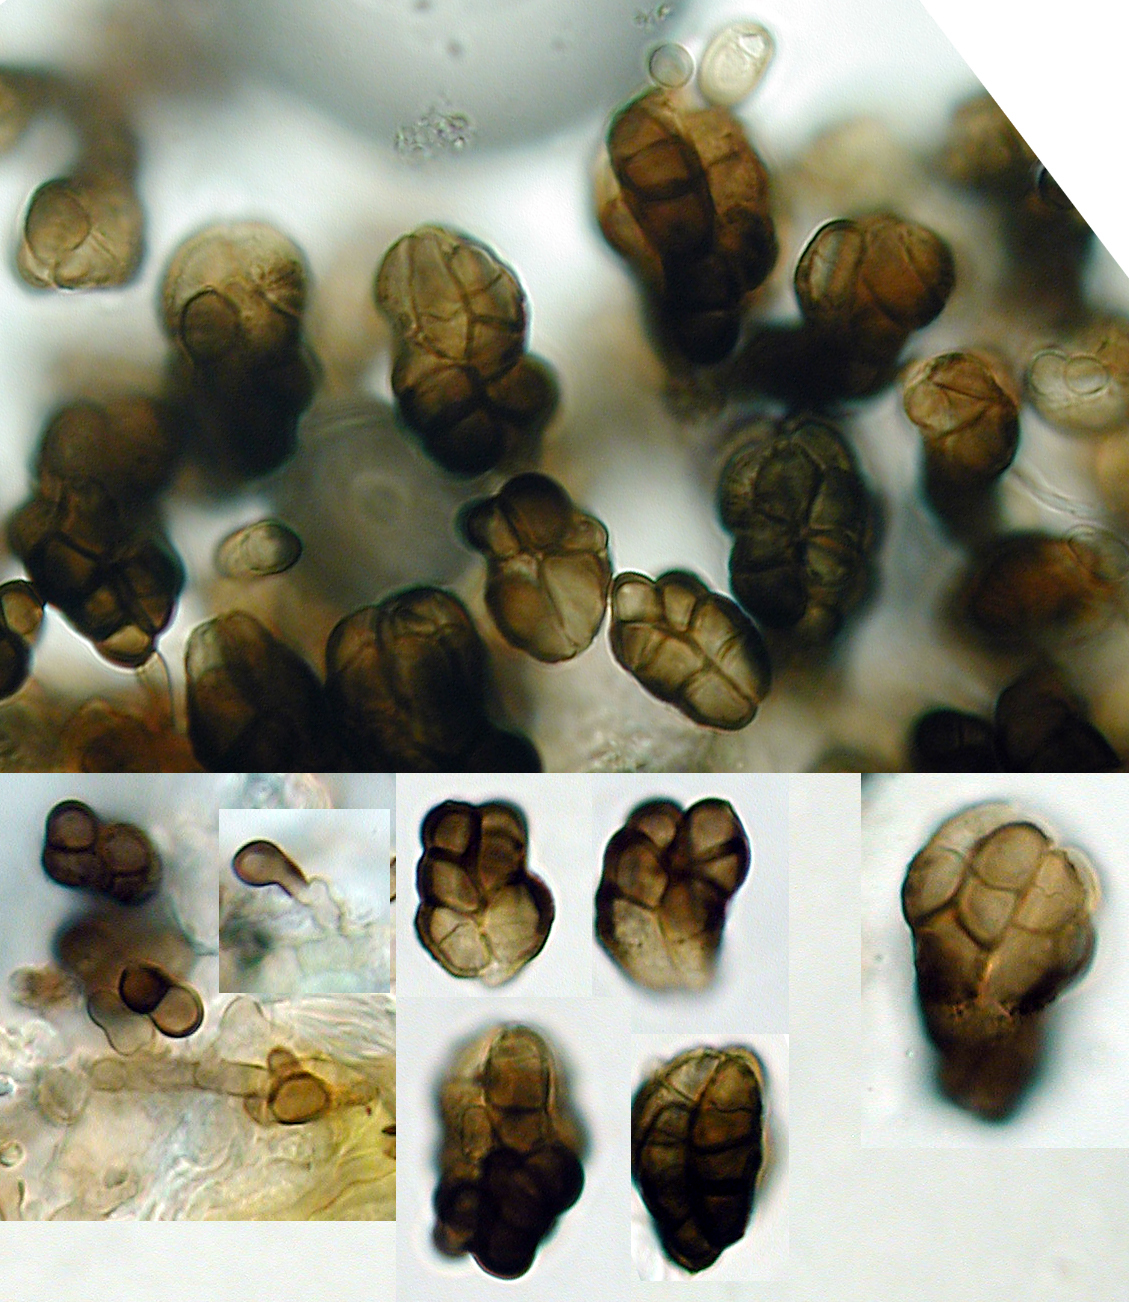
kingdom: Fungi
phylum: Ascomycota
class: Leotiomycetes
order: Helotiales
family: Mollisiaceae
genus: Trimmatostroma
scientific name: Trimmatostroma scutellare
